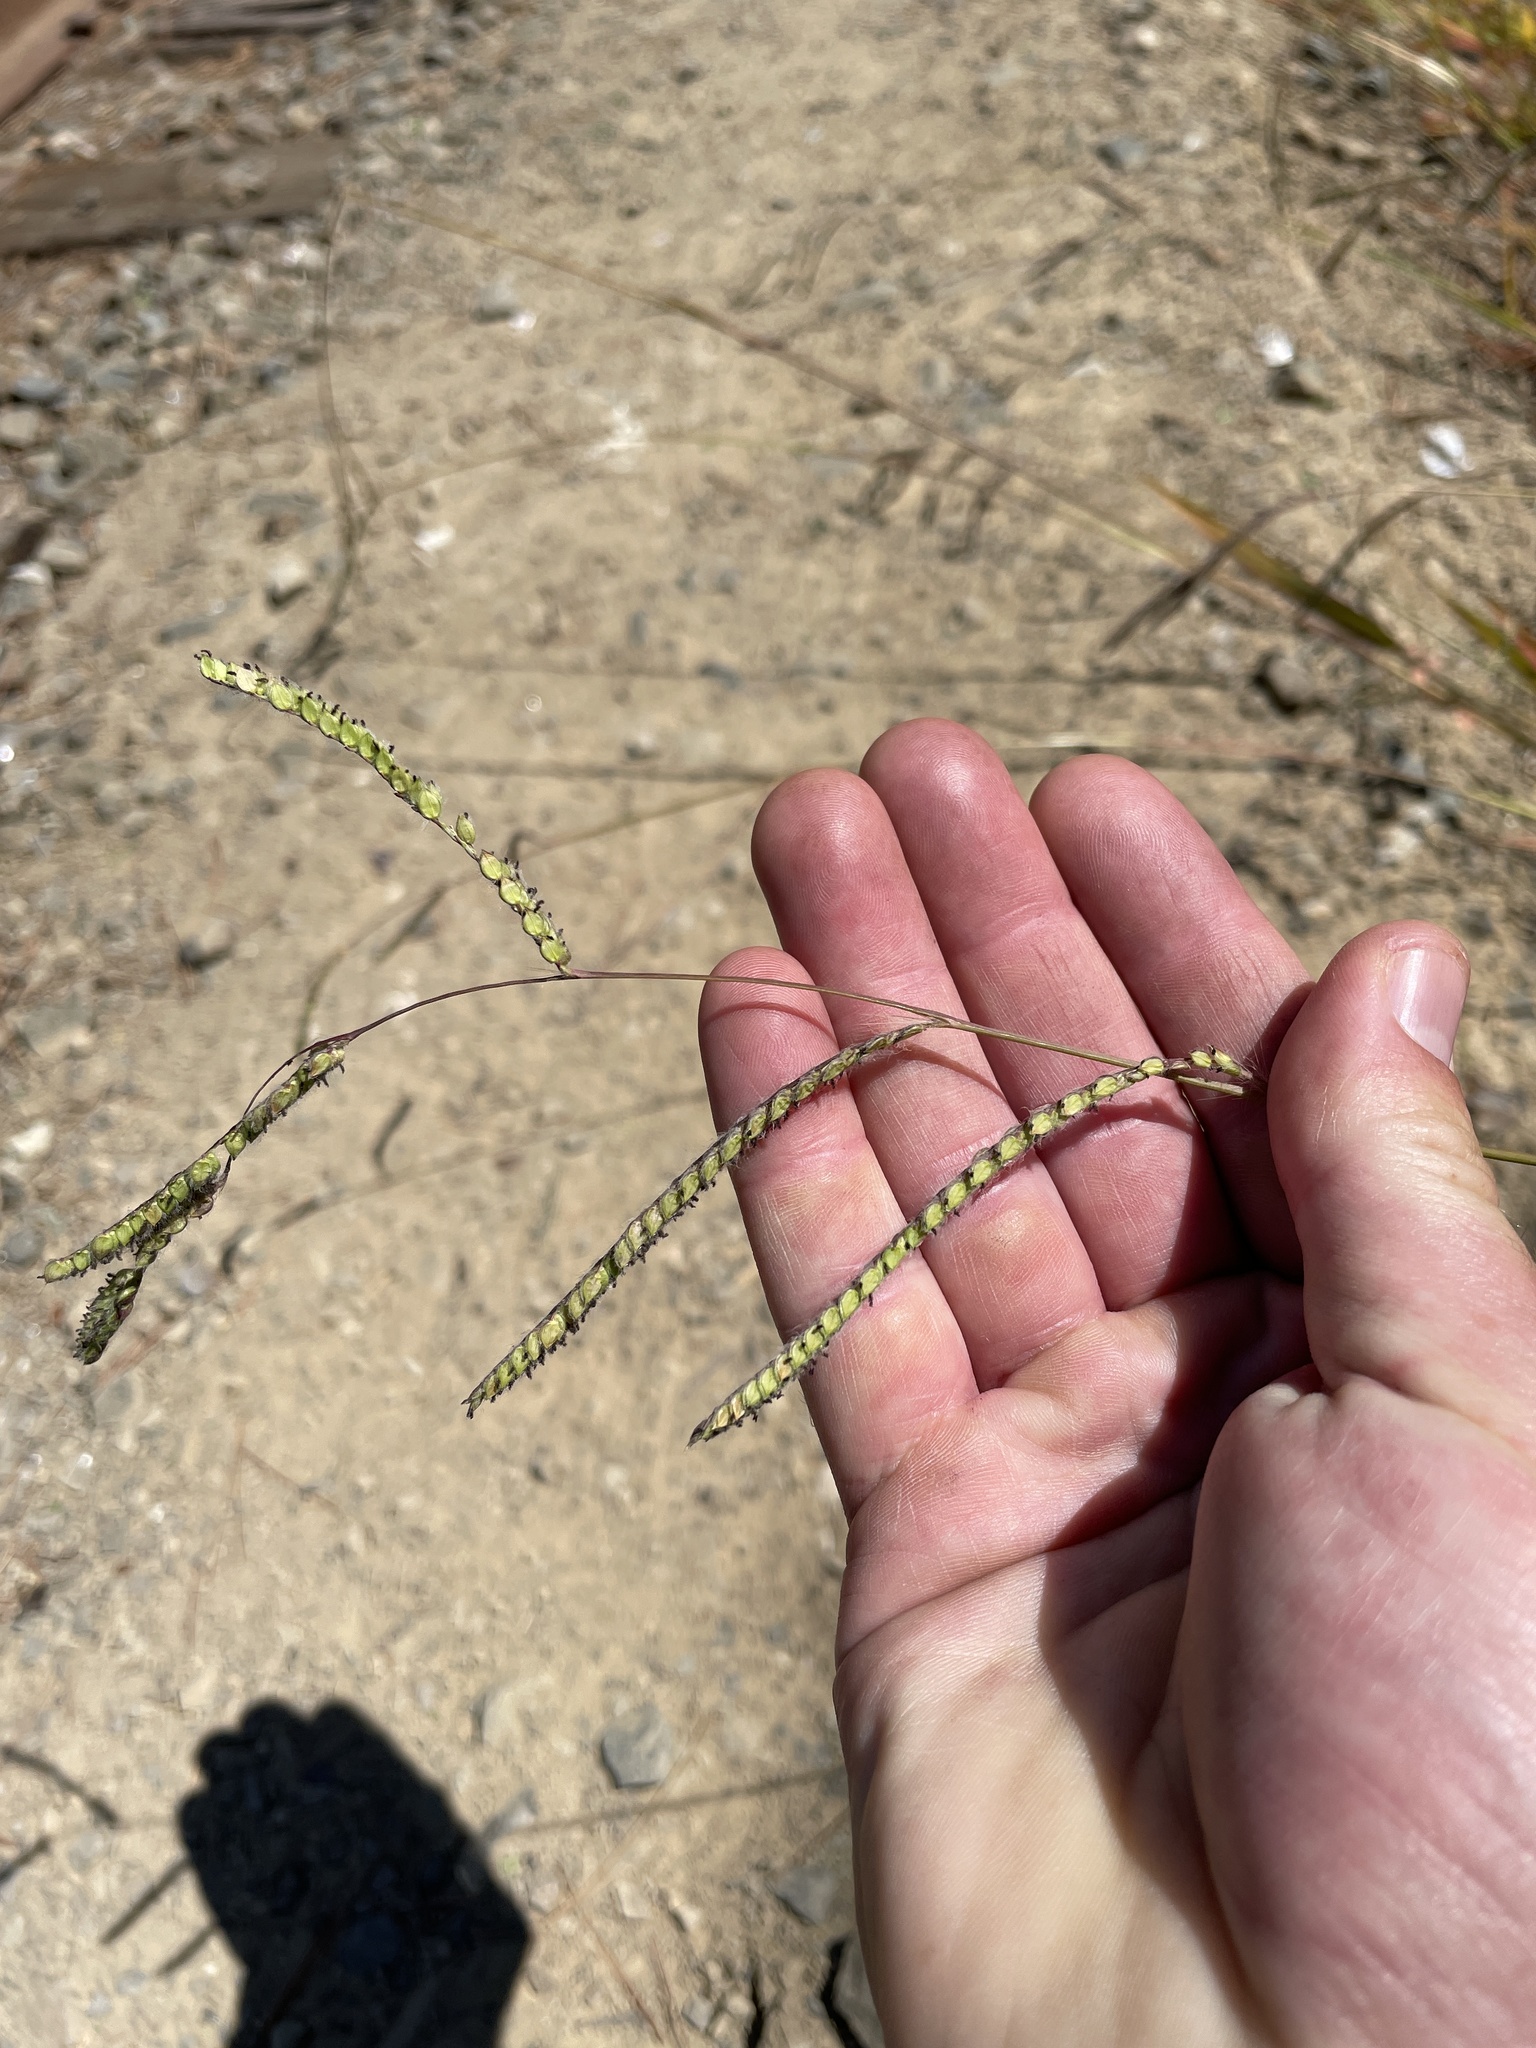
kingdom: Plantae
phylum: Tracheophyta
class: Liliopsida
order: Poales
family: Poaceae
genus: Paspalum
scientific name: Paspalum dilatatum
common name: Dallisgrass
